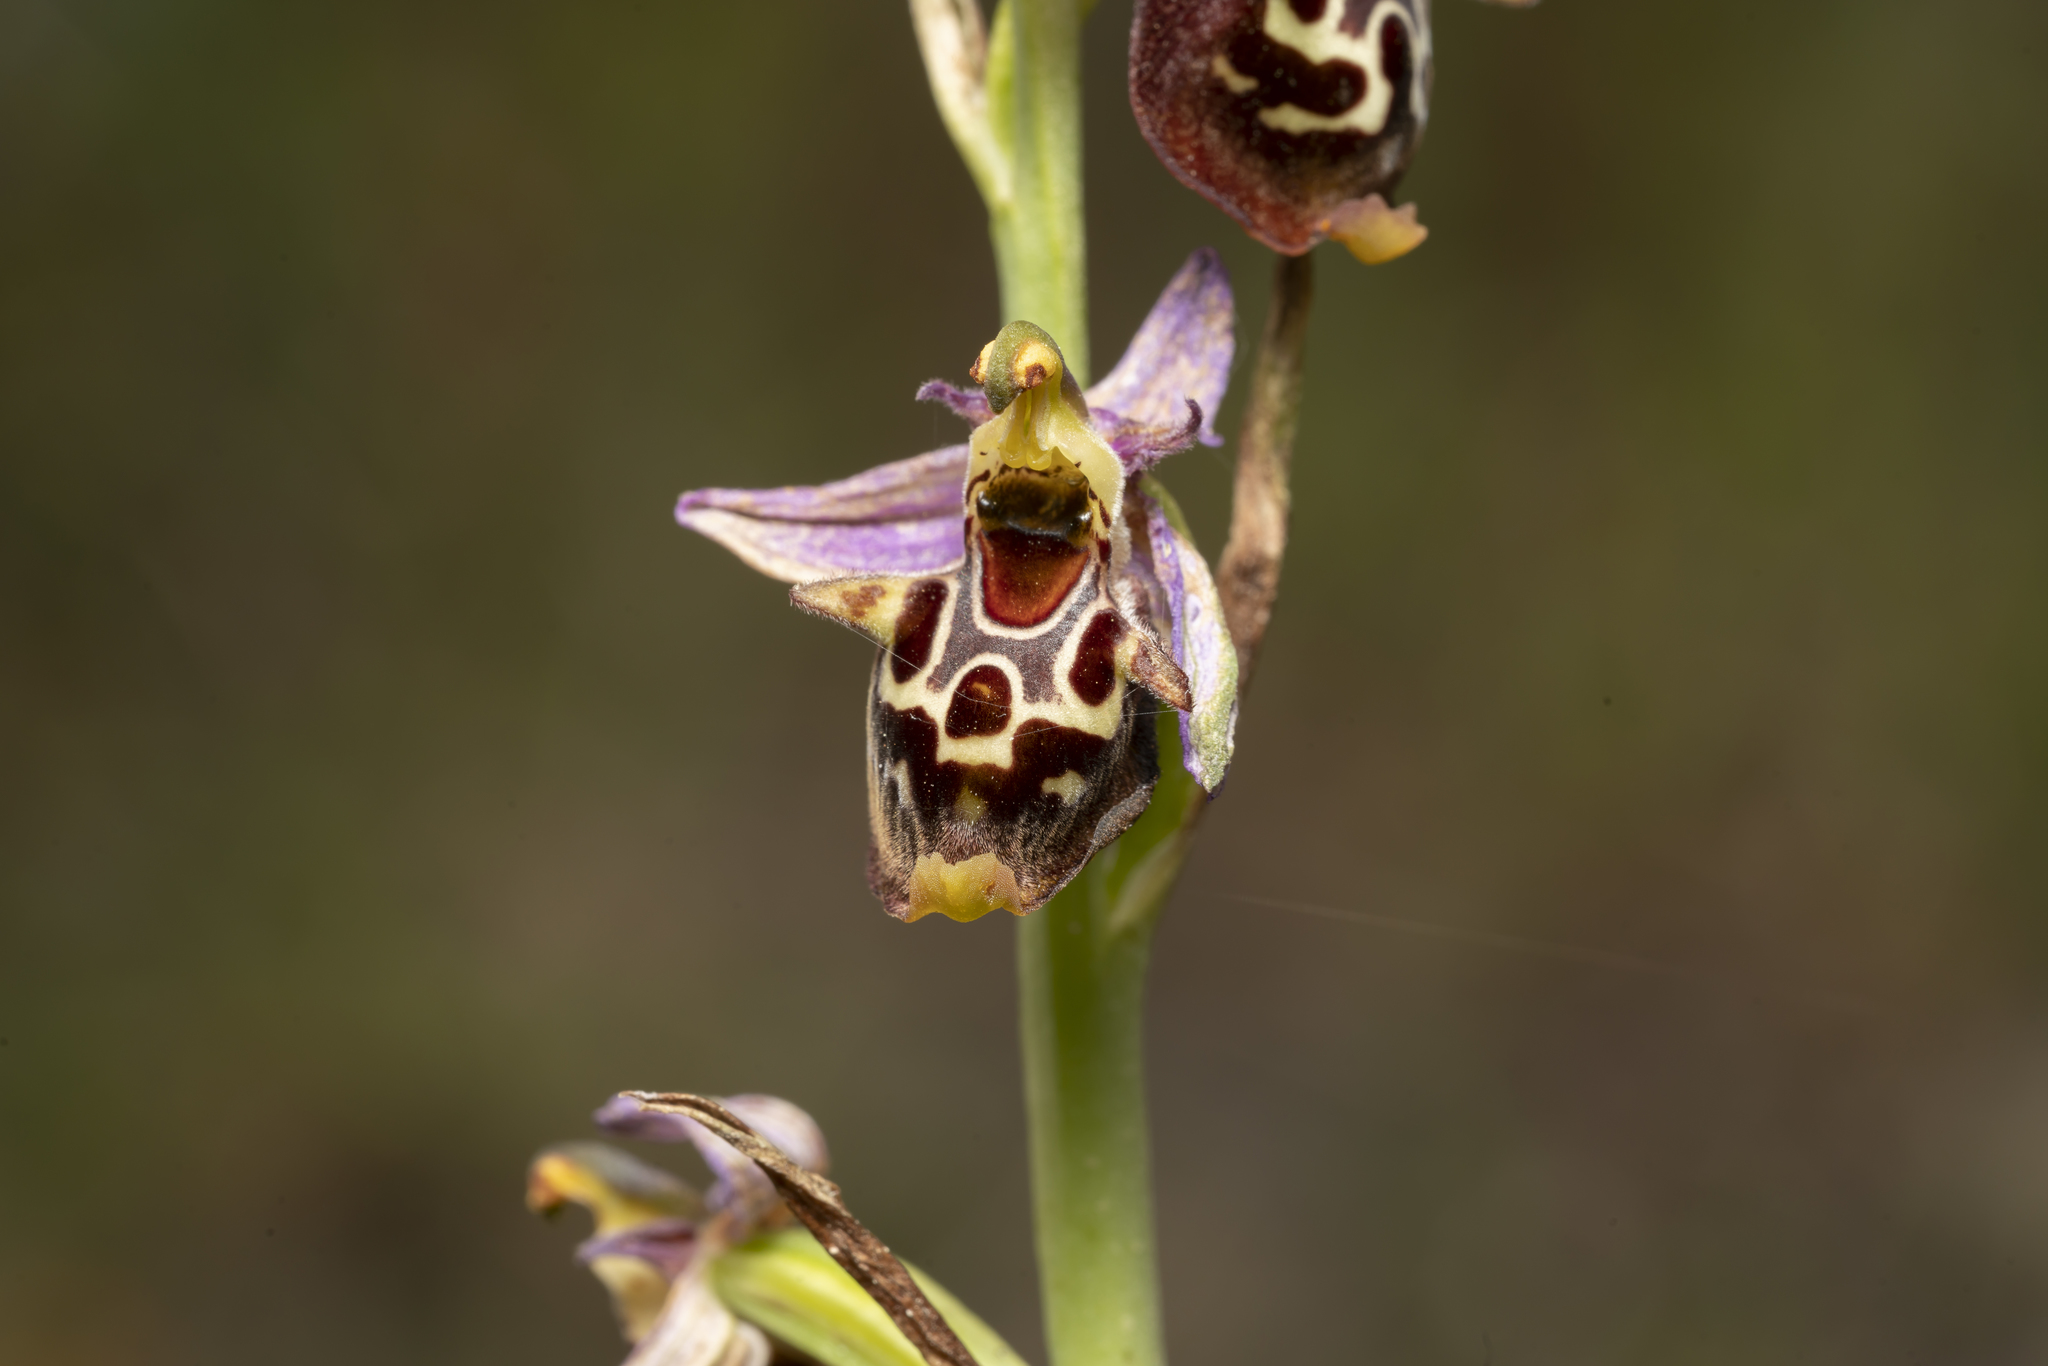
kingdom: Plantae
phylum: Tracheophyta
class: Liliopsida
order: Asparagales
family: Orchidaceae
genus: Ophrys
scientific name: Ophrys holosericea
